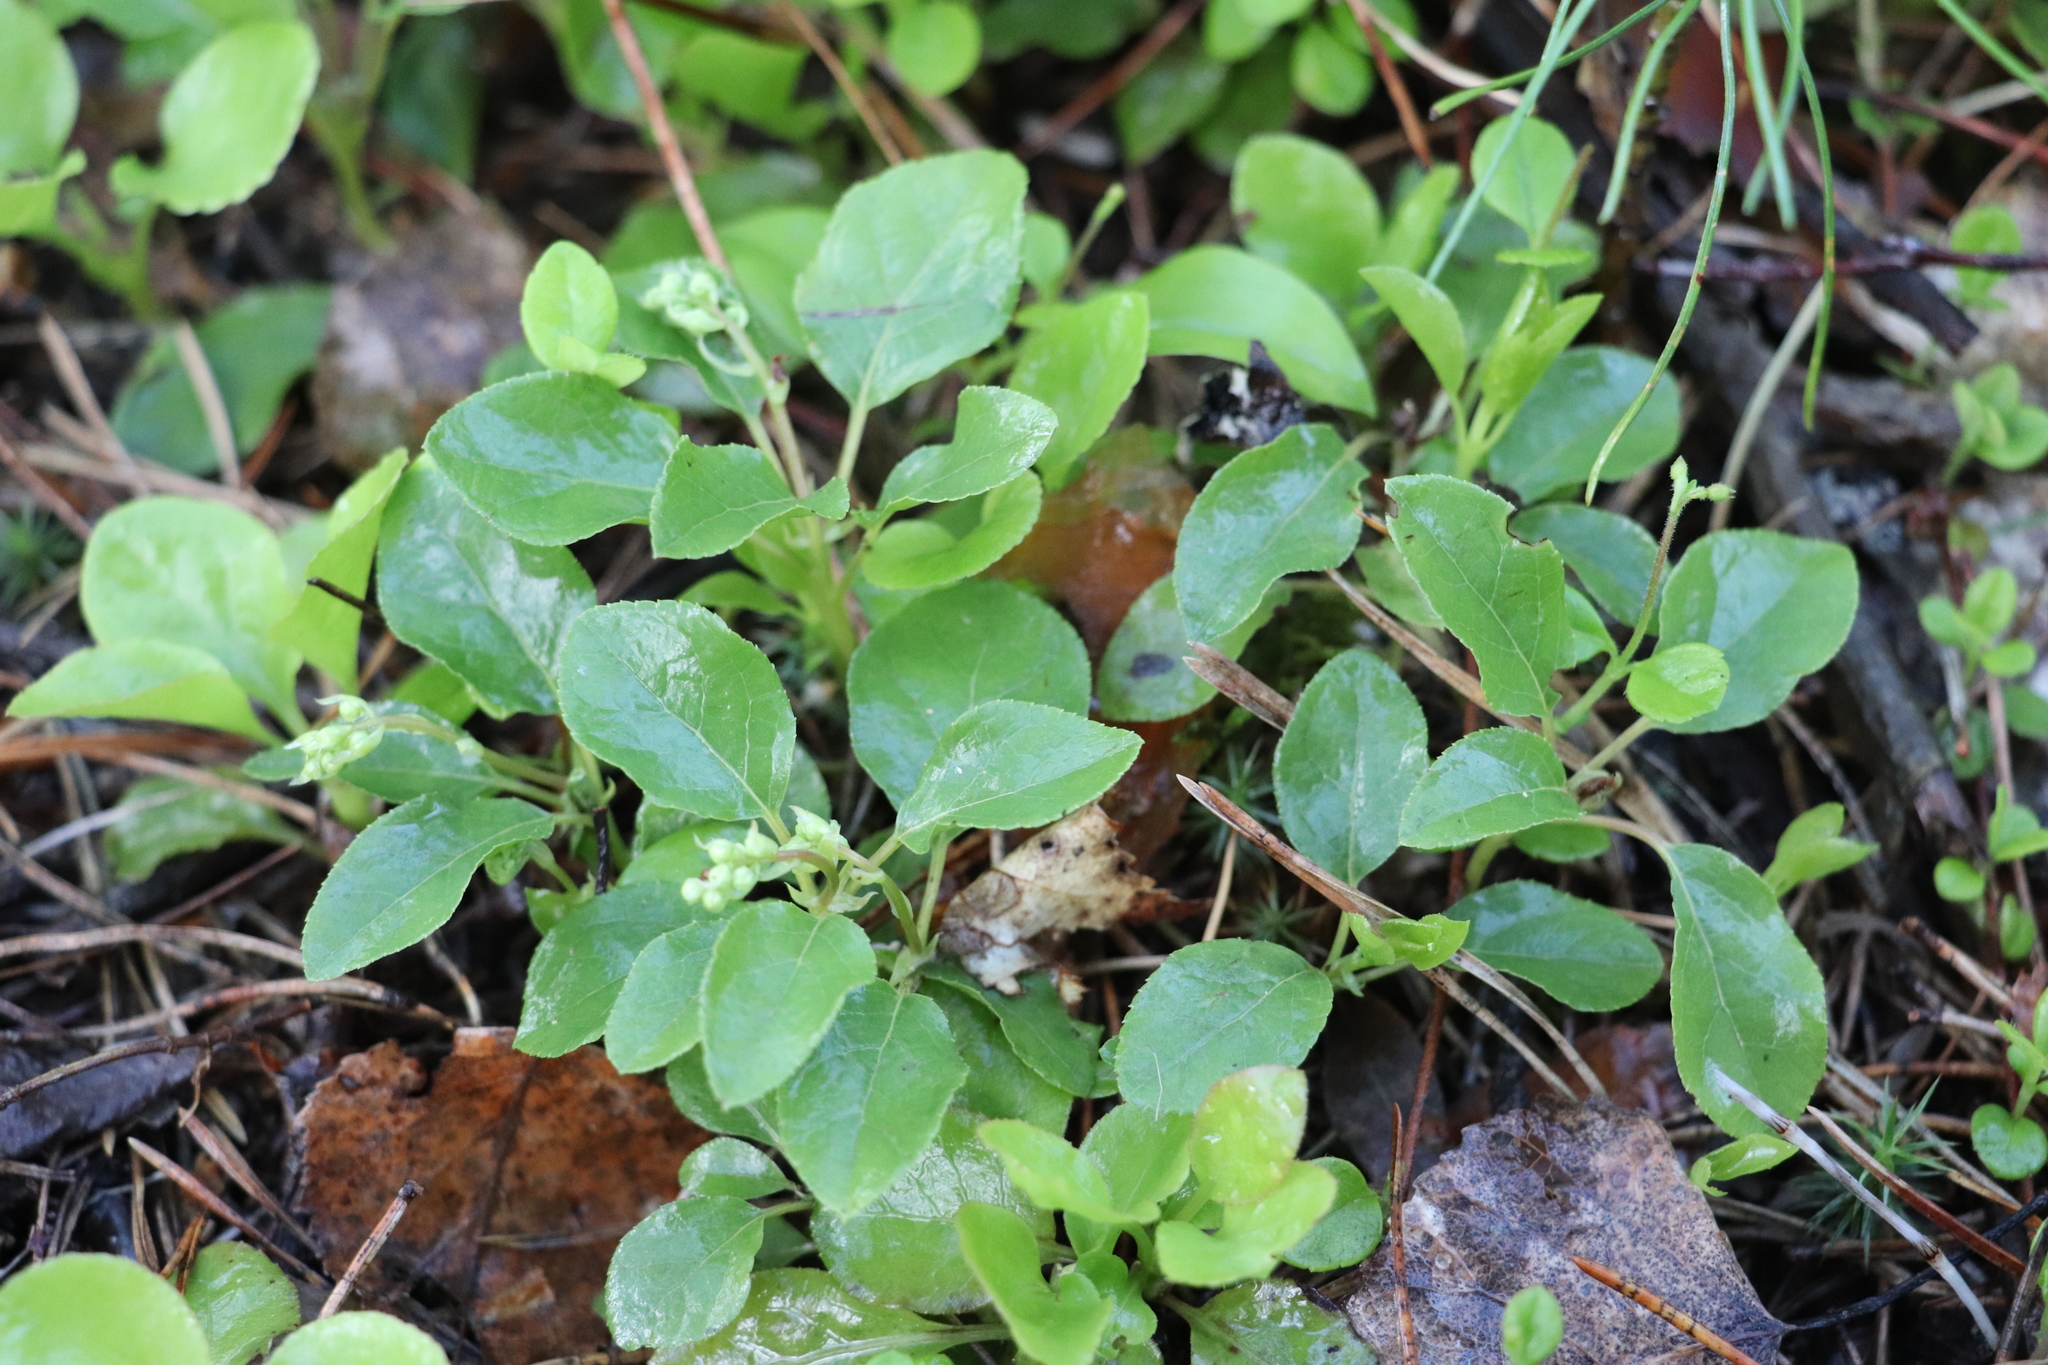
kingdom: Plantae
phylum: Tracheophyta
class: Magnoliopsida
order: Ericales
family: Ericaceae
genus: Orthilia
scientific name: Orthilia secunda
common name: One-sided orthilia
